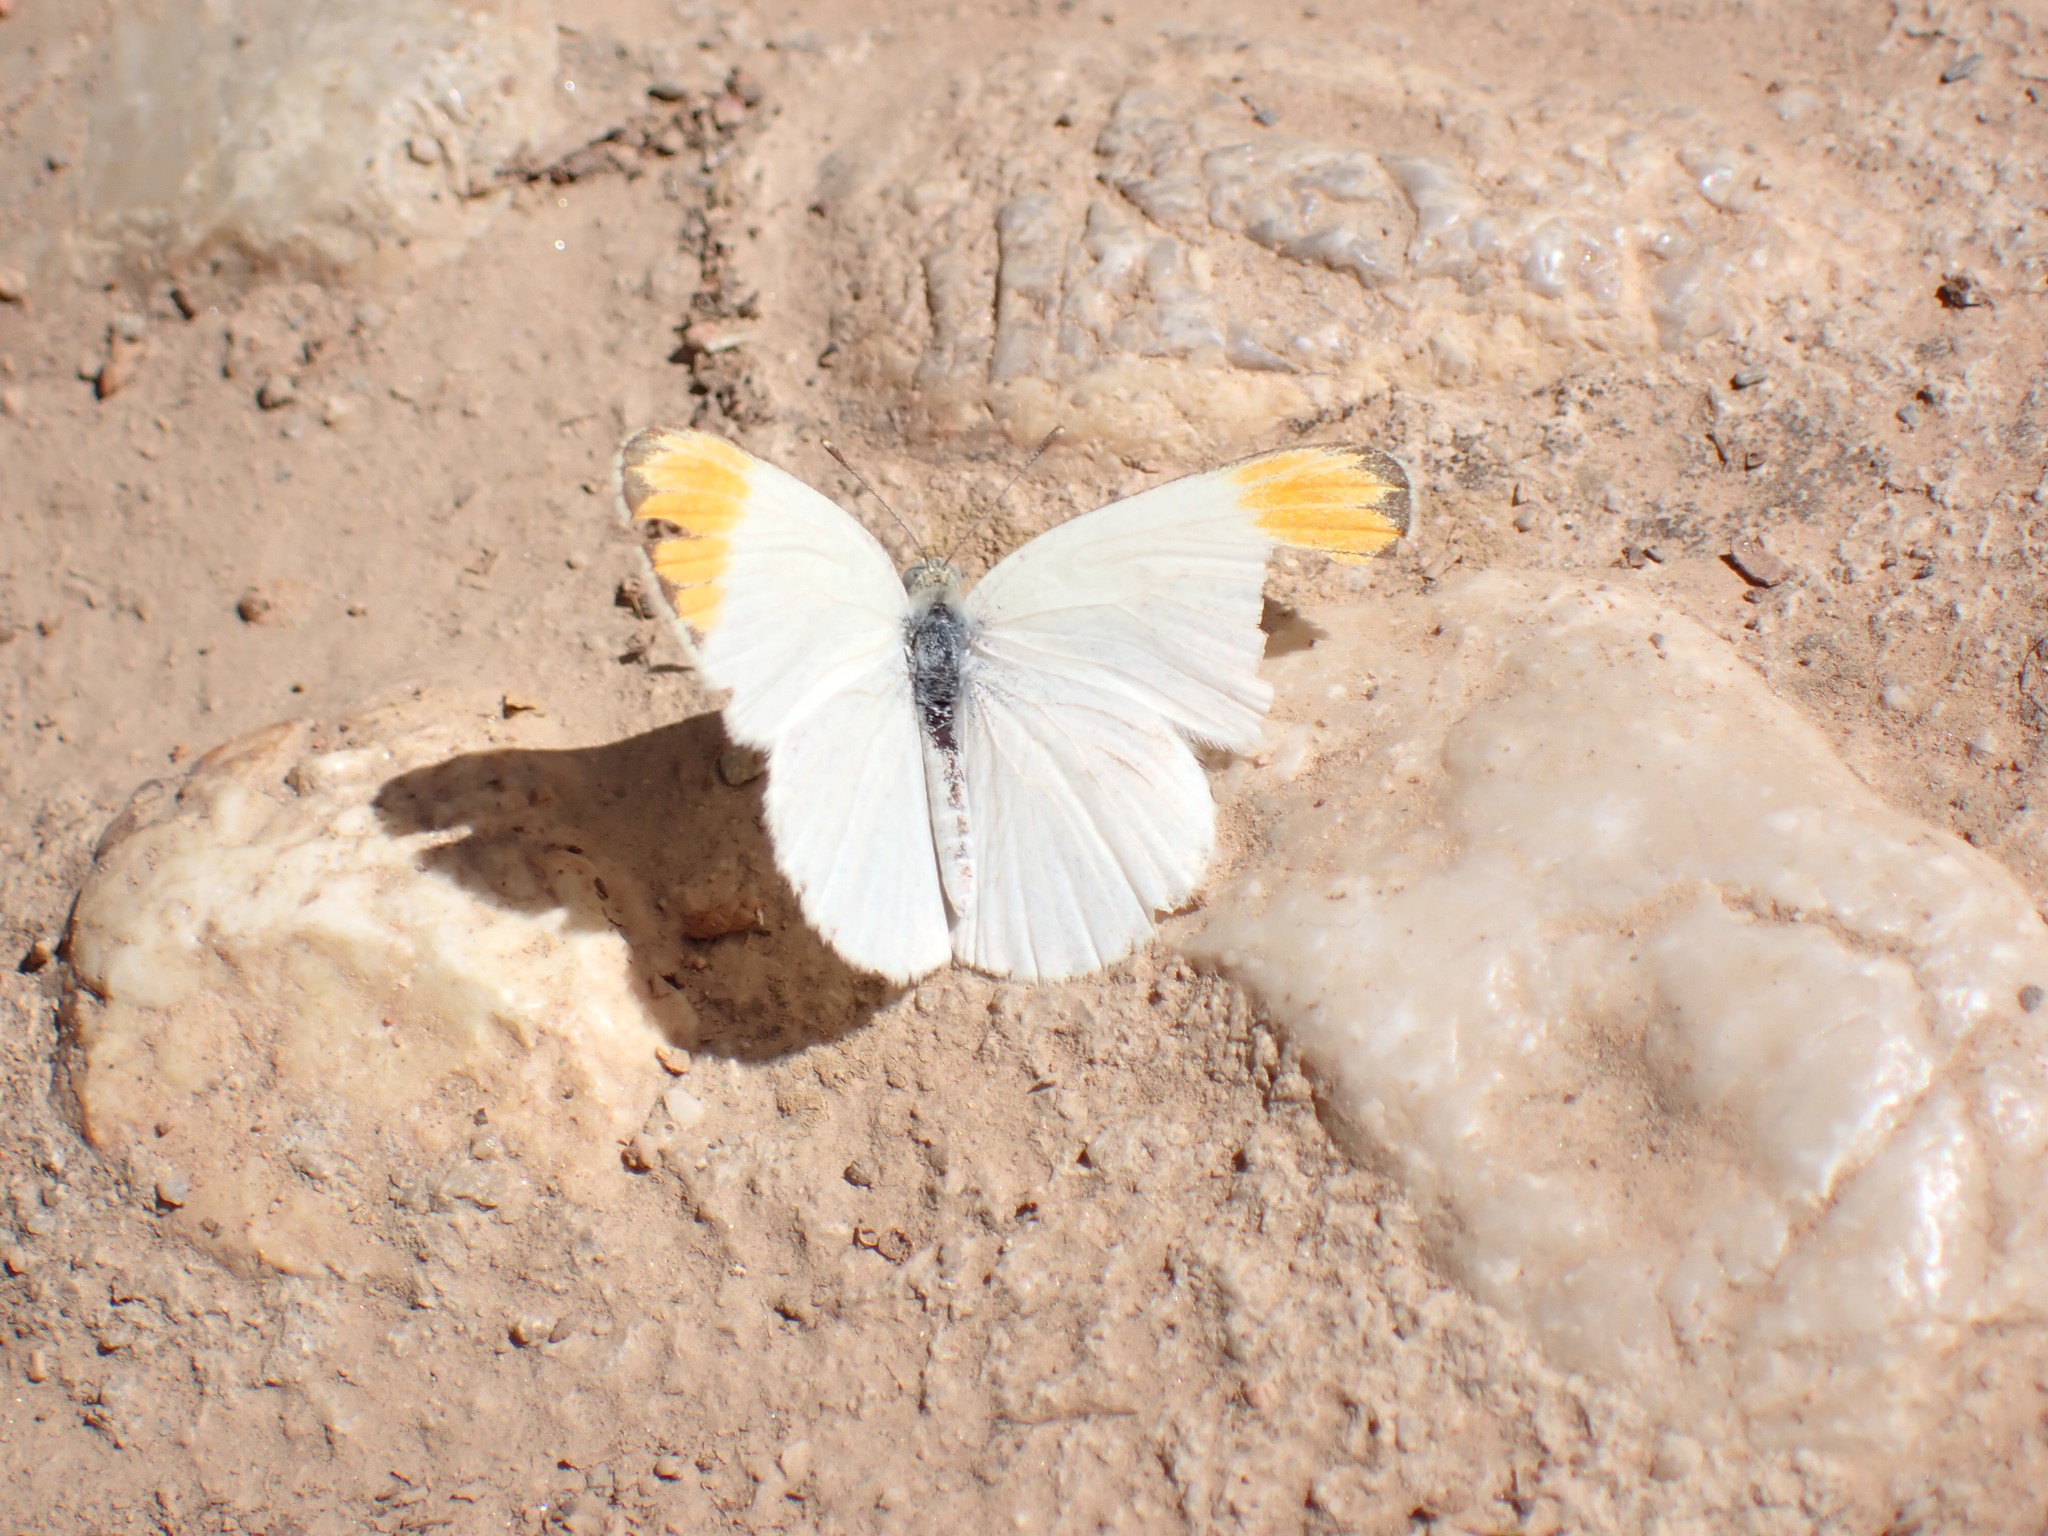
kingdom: Animalia
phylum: Arthropoda
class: Insecta
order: Lepidoptera
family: Pieridae
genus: Colotis
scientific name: Colotis evagore
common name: Desert orange-tip
